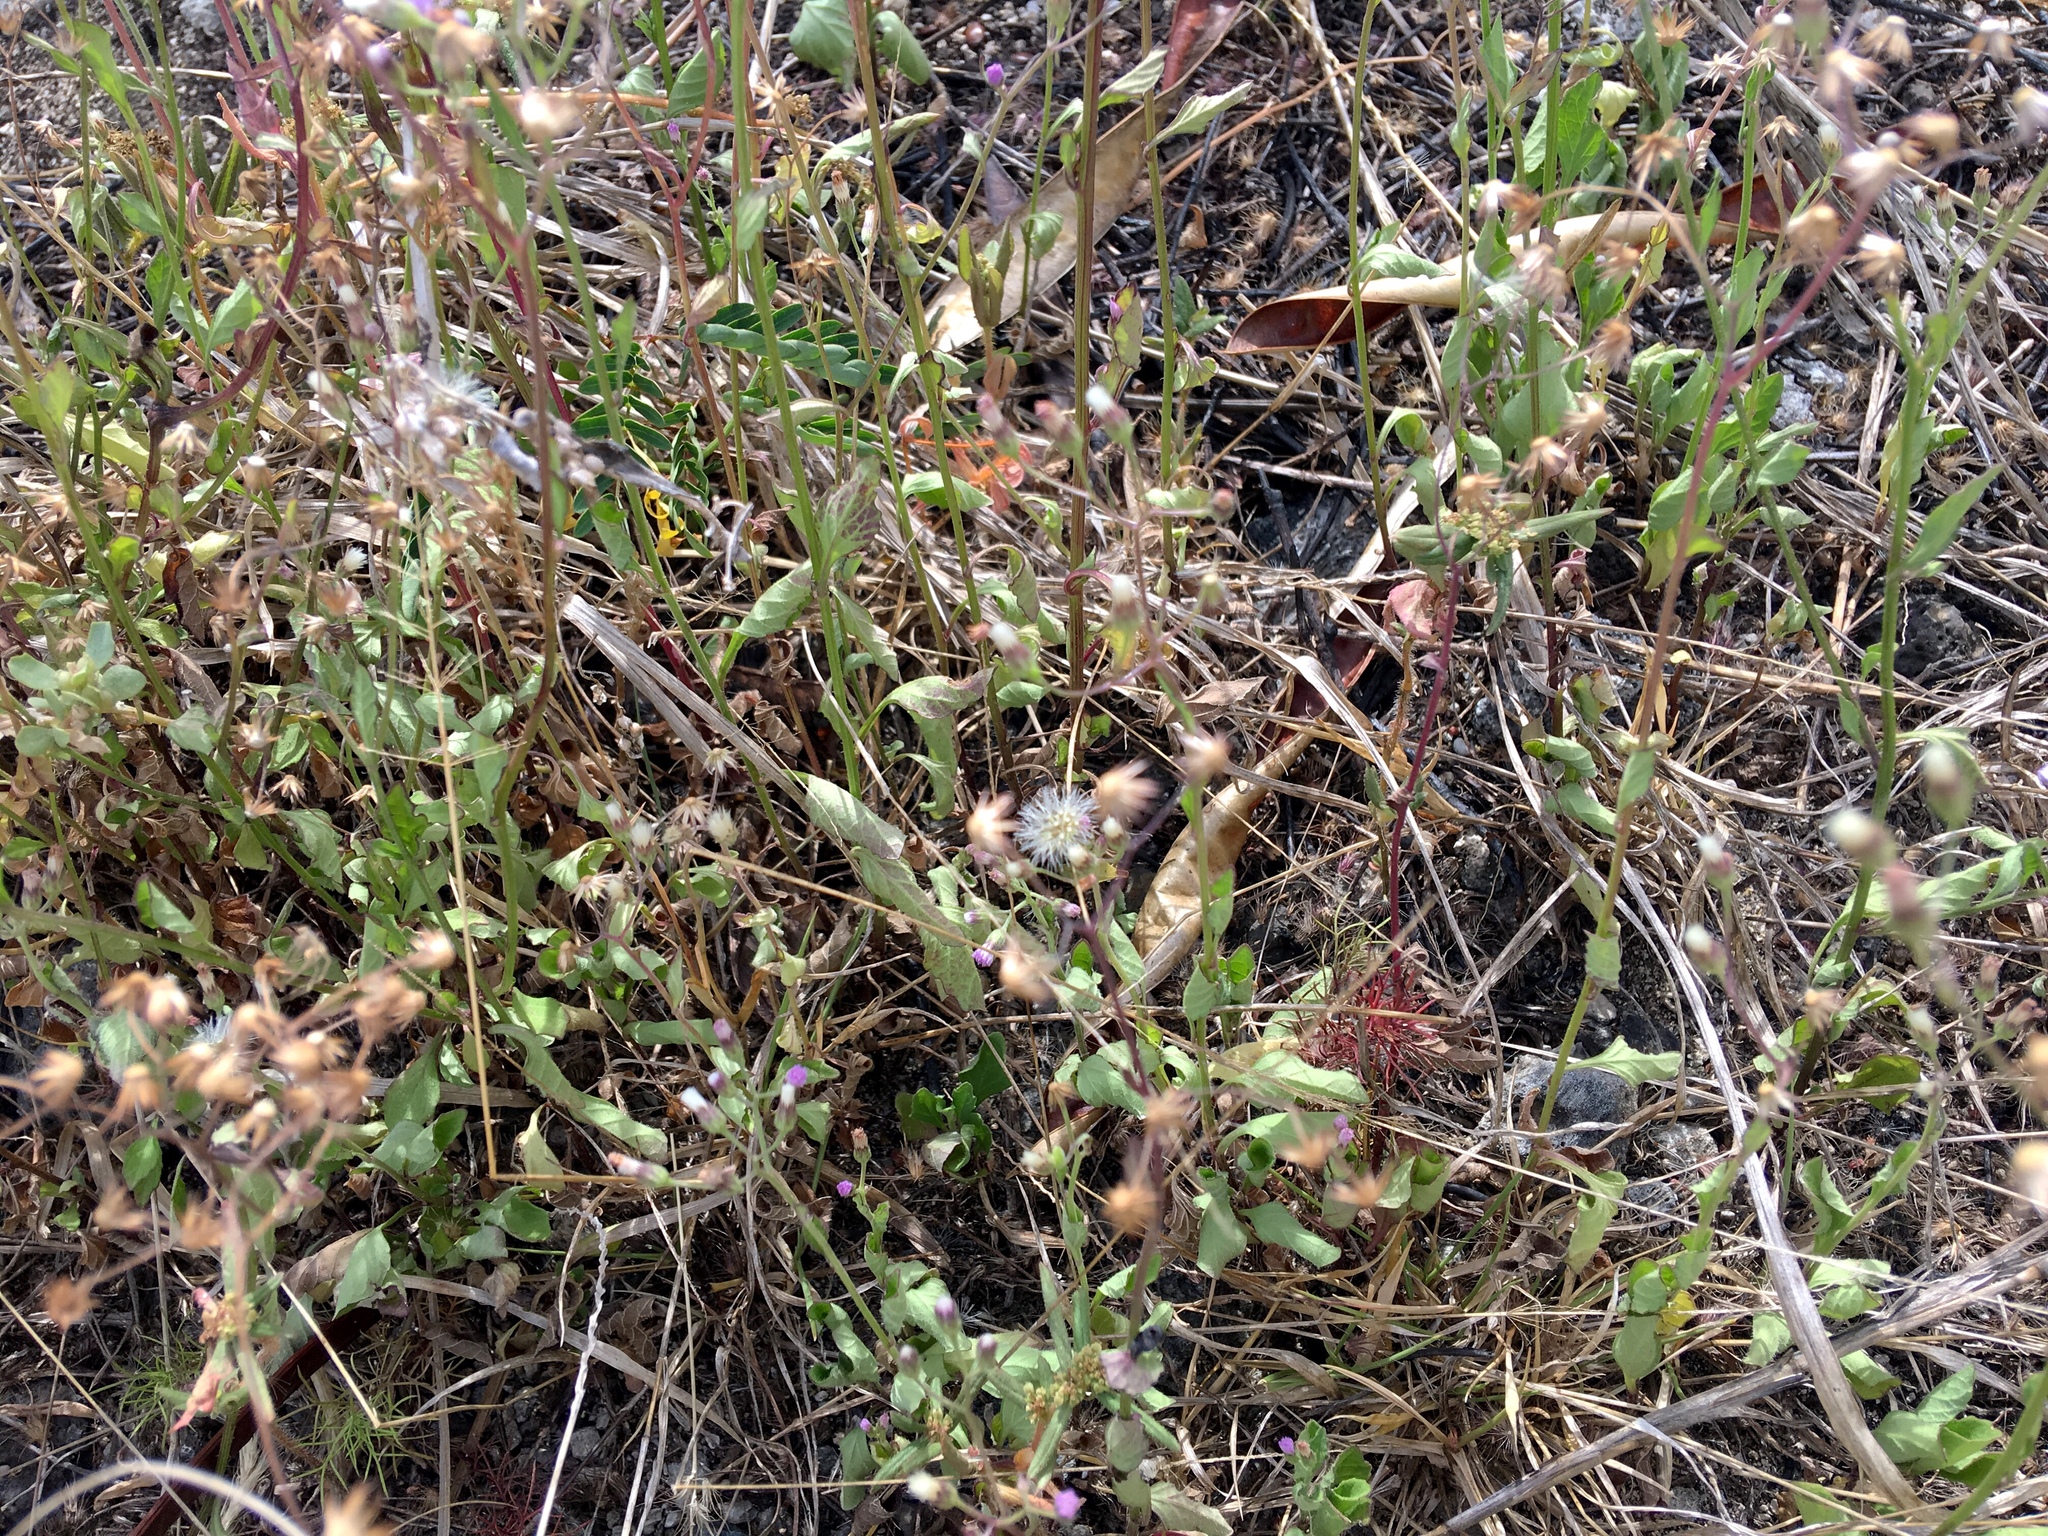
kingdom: Plantae
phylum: Tracheophyta
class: Magnoliopsida
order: Asterales
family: Asteraceae
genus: Emilia
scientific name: Emilia sonchifolia
